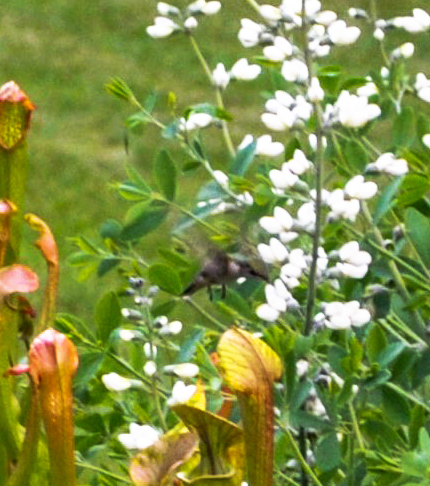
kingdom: Animalia
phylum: Chordata
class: Aves
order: Apodiformes
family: Trochilidae
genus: Archilochus
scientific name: Archilochus colubris
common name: Ruby-throated hummingbird
